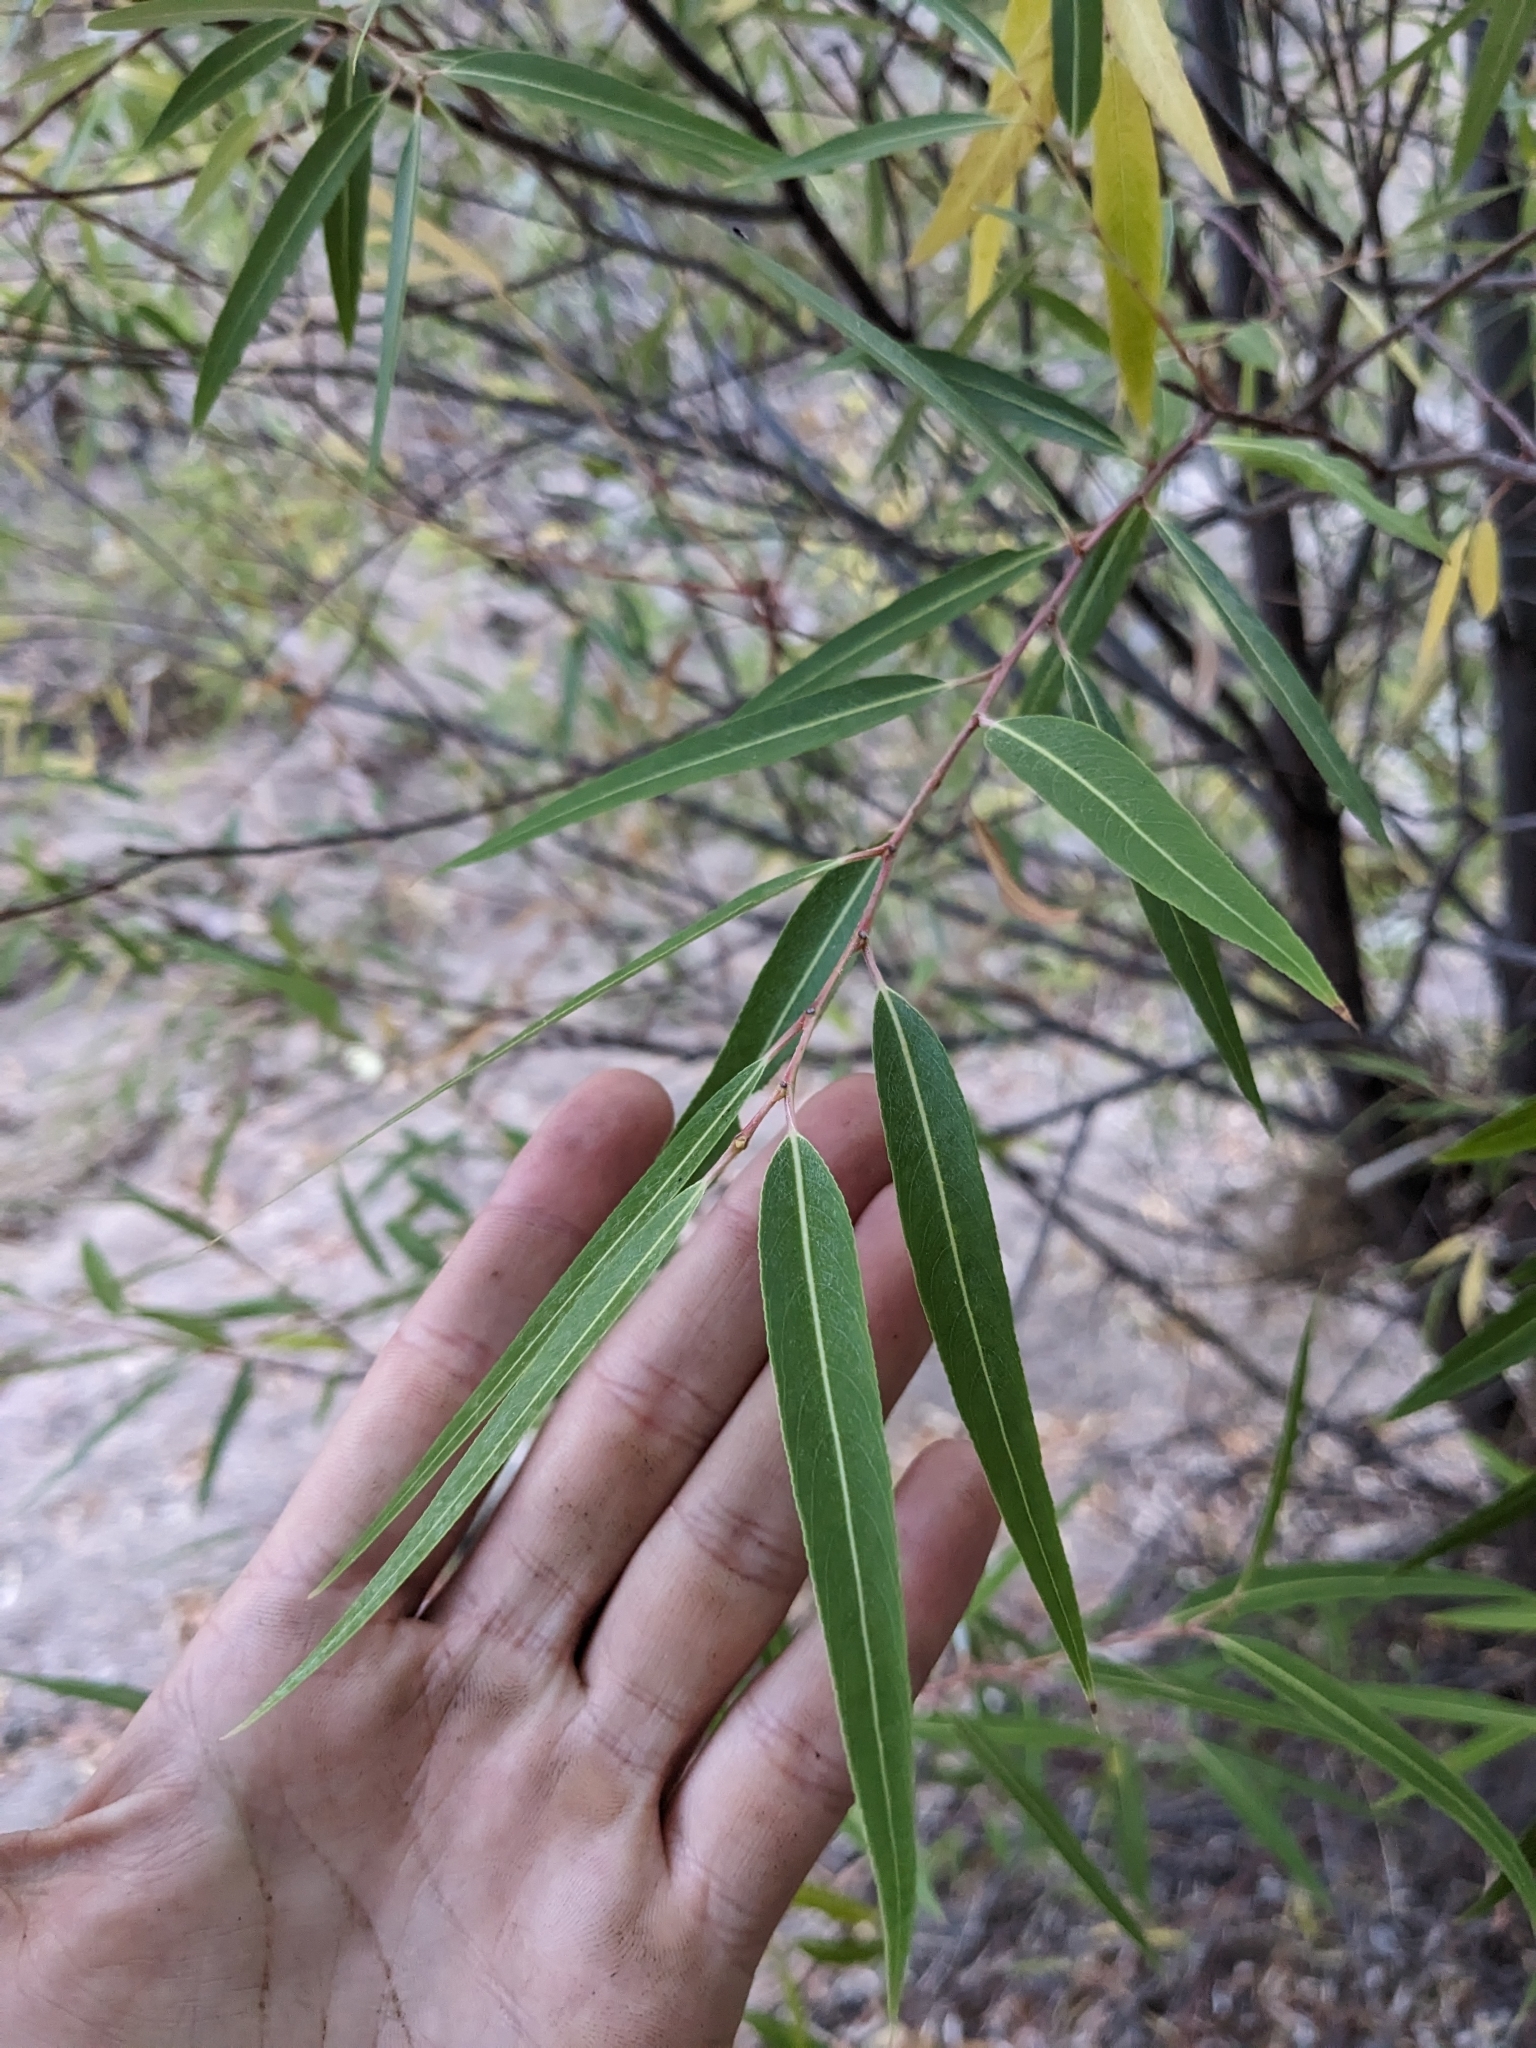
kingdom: Plantae
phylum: Tracheophyta
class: Magnoliopsida
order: Malpighiales
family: Salicaceae
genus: Salix
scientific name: Salix bonplandiana
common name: Bonpland’s willow
